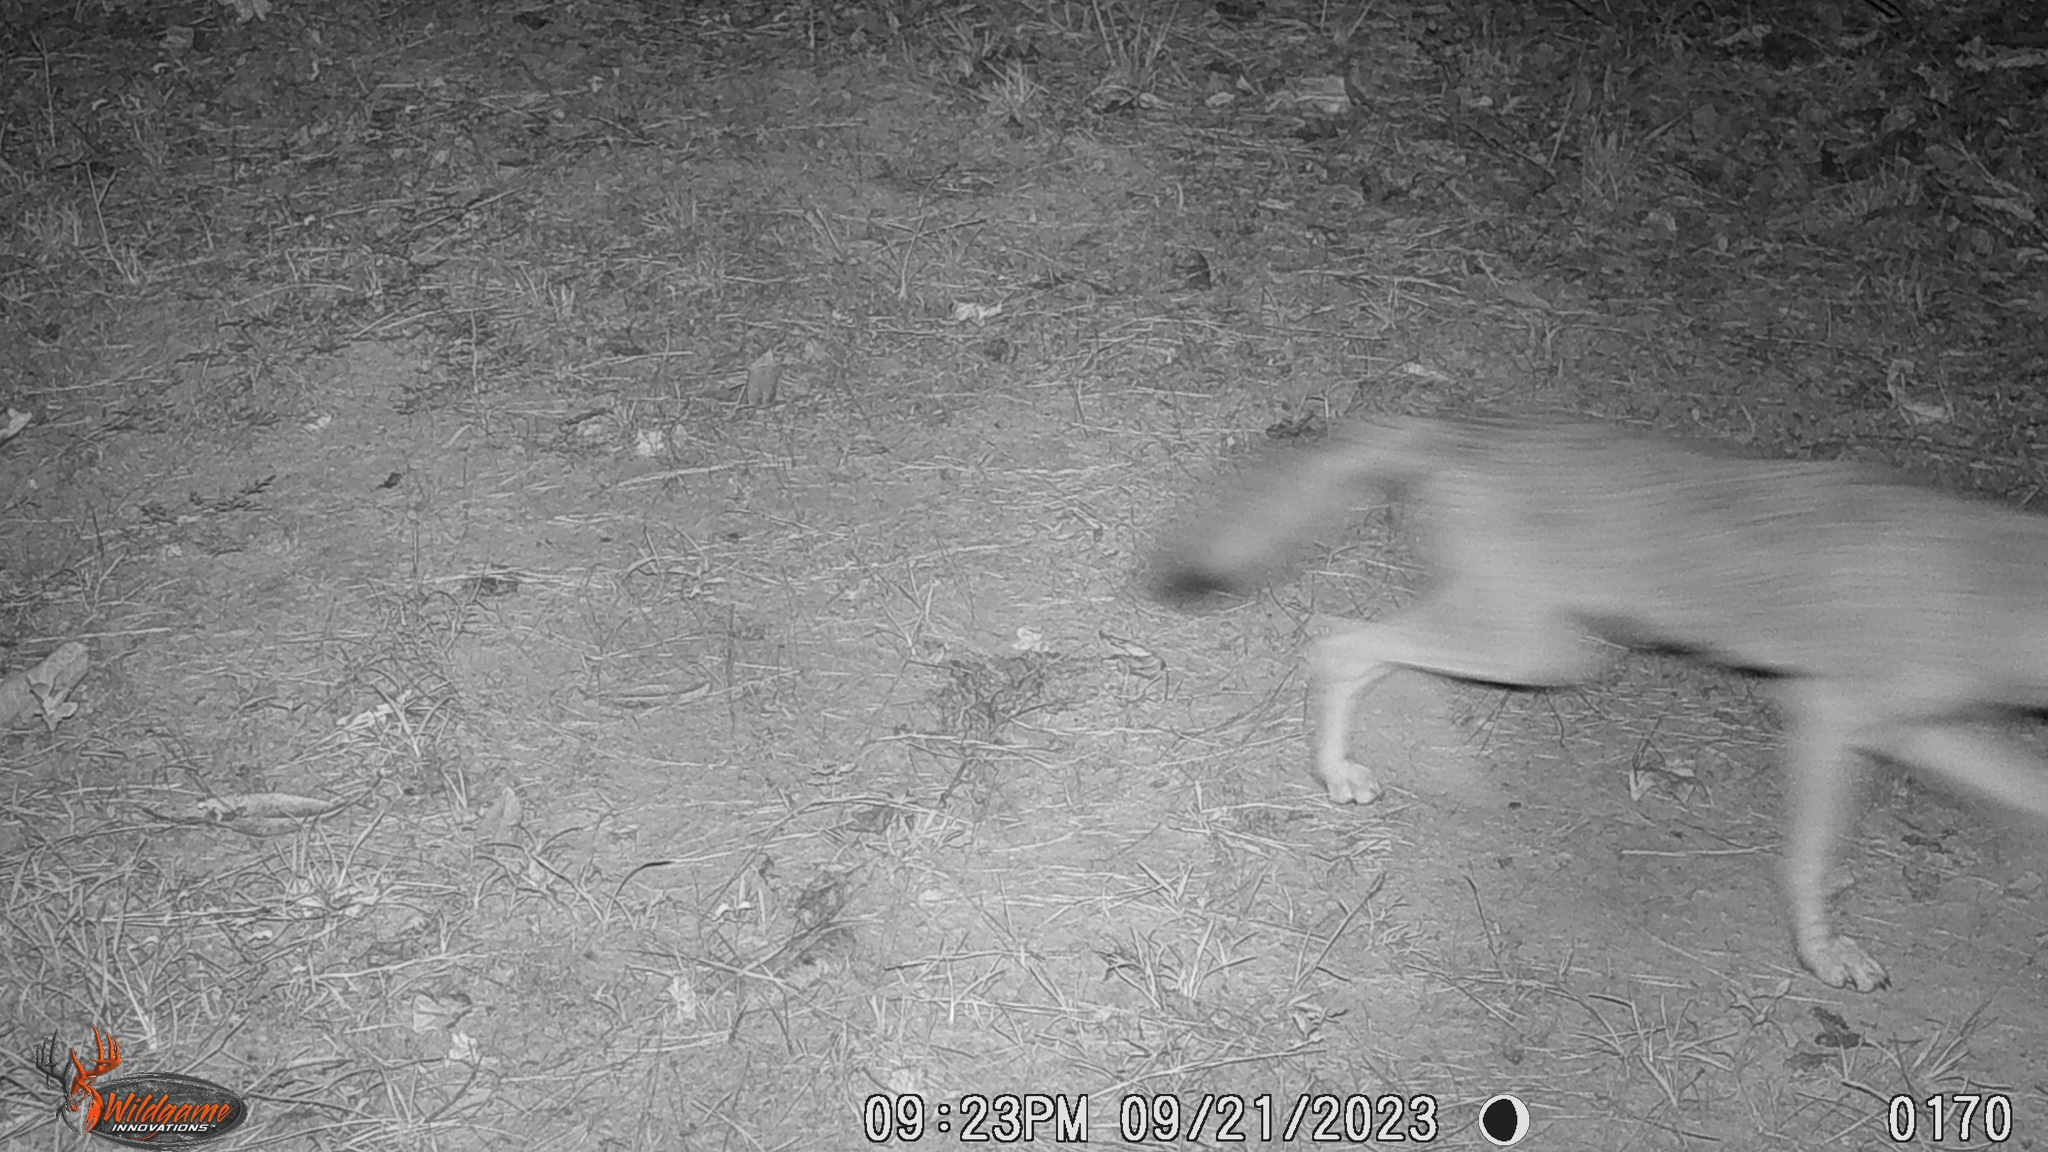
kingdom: Animalia
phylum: Chordata
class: Mammalia
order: Carnivora
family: Canidae
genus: Canis
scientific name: Canis latrans
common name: Coyote
